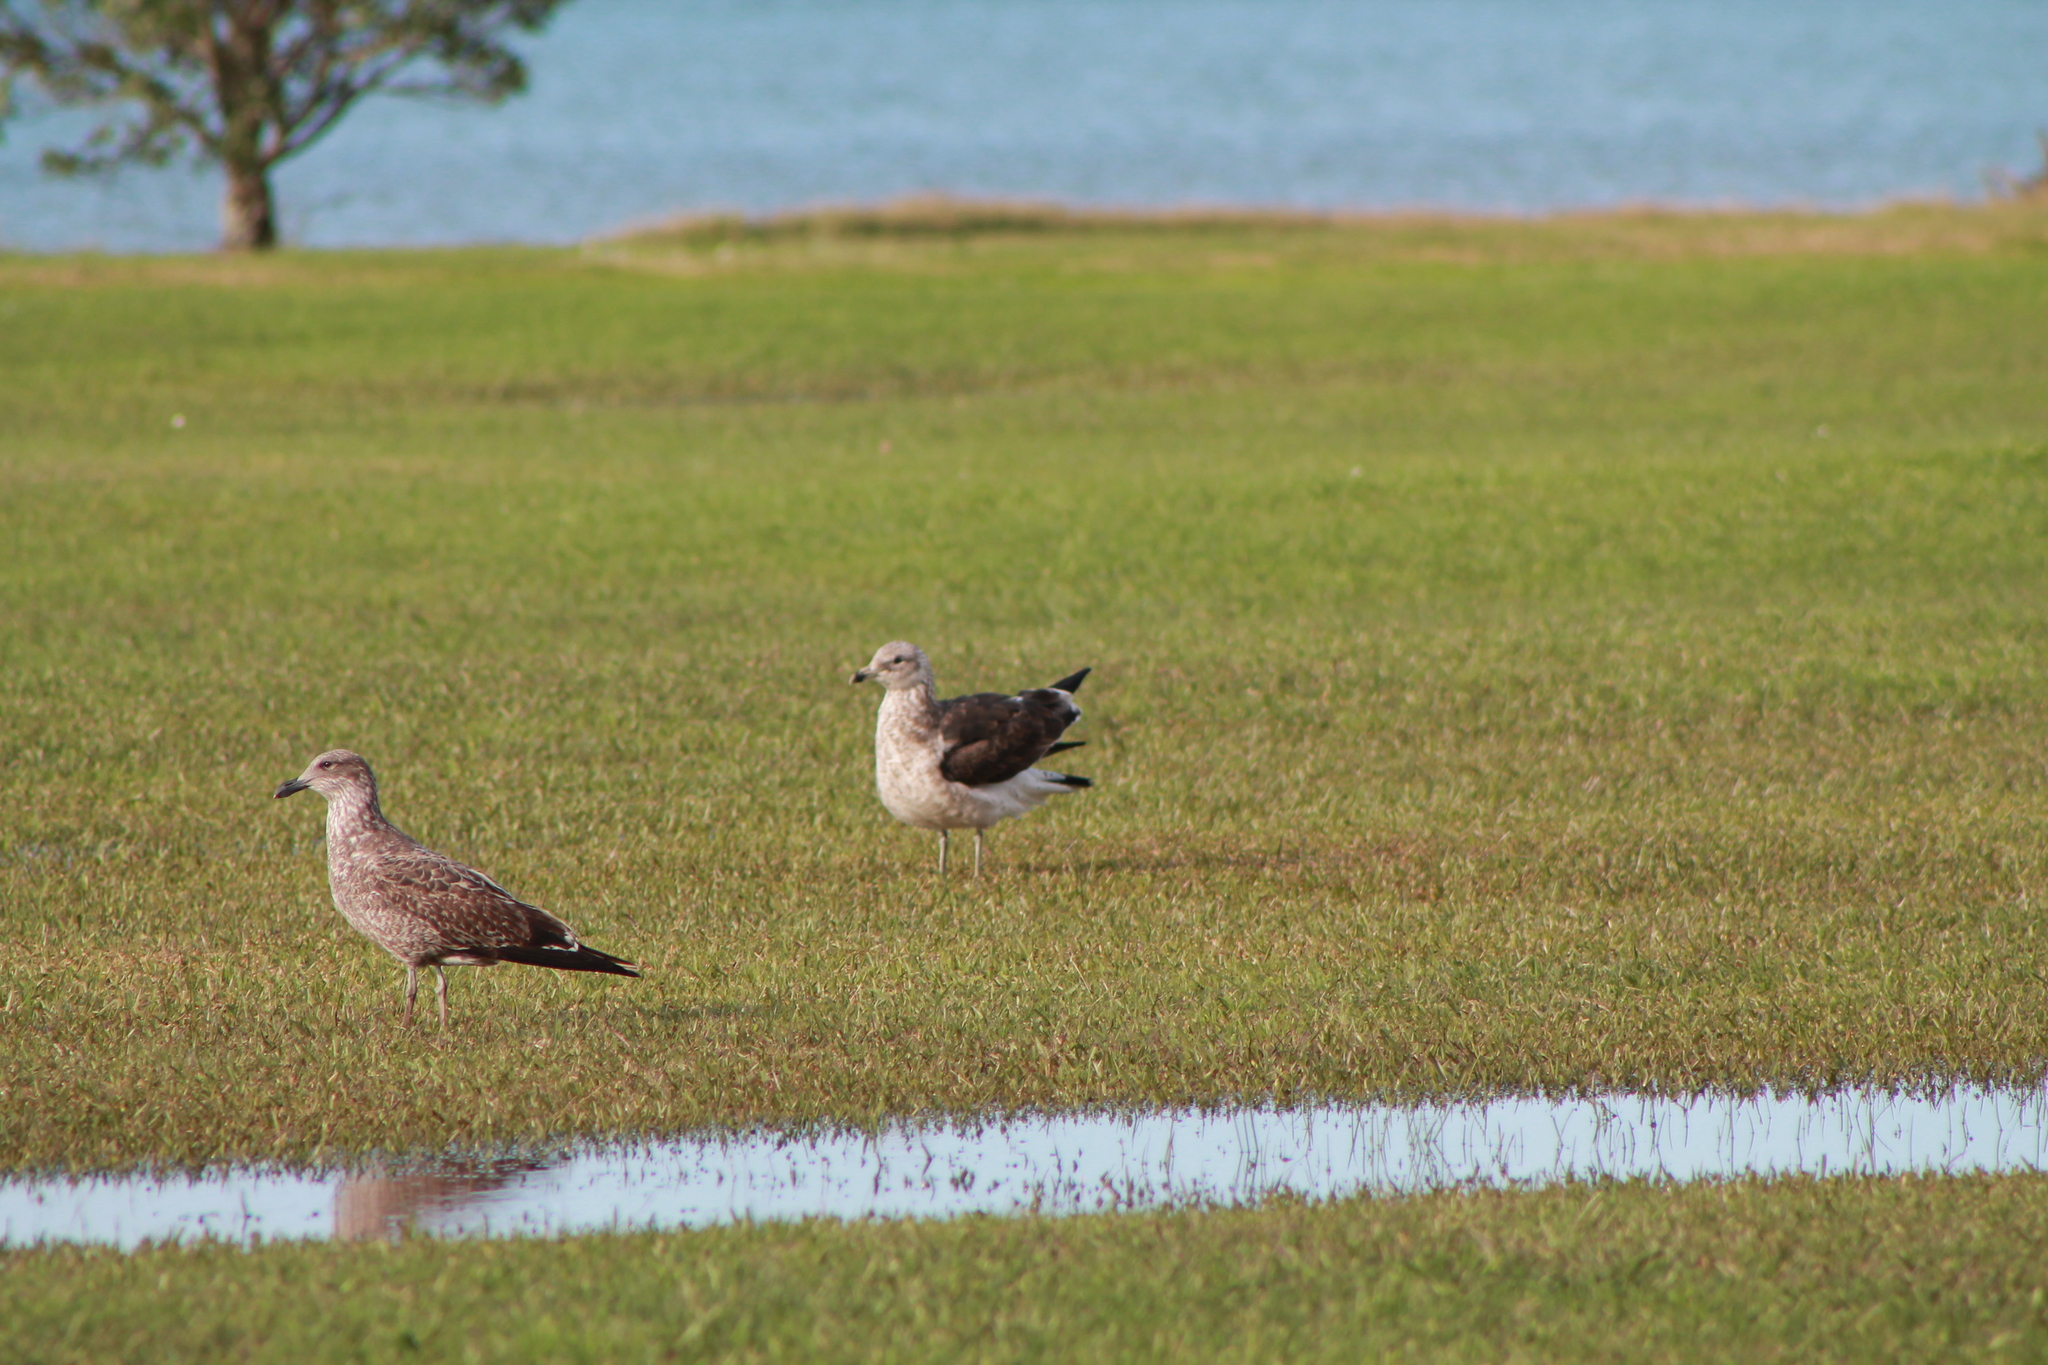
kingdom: Animalia
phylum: Chordata
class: Aves
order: Charadriiformes
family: Laridae
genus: Larus
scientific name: Larus dominicanus
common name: Kelp gull
